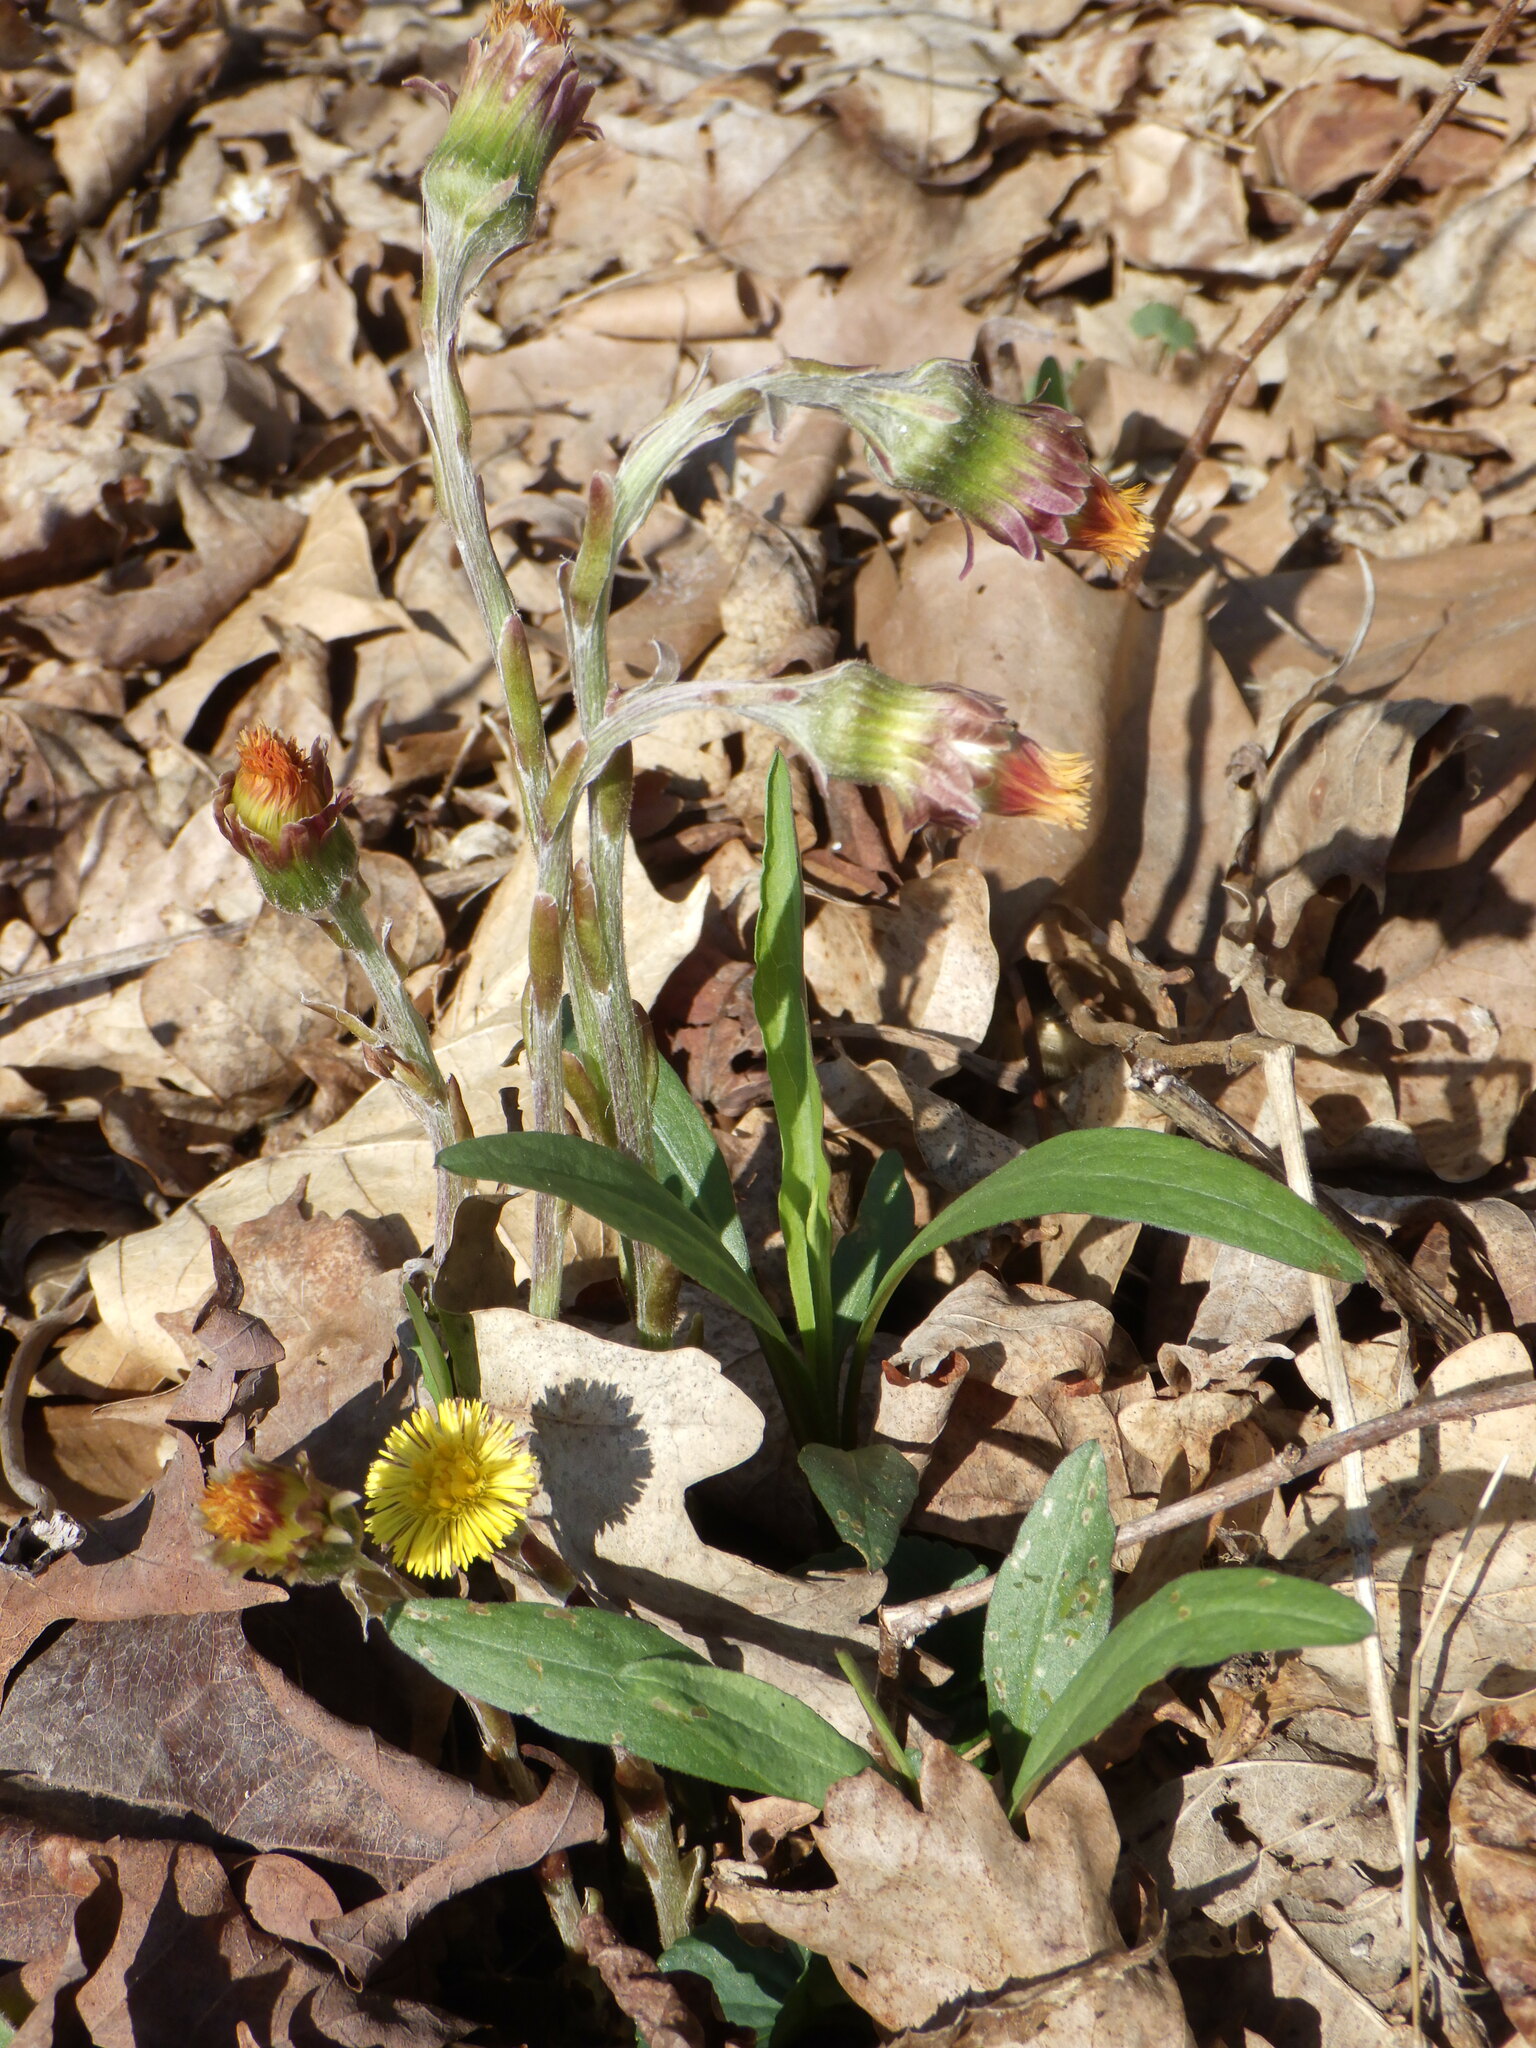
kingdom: Plantae
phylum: Tracheophyta
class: Magnoliopsida
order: Asterales
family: Asteraceae
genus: Tussilago
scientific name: Tussilago farfara
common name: Coltsfoot
